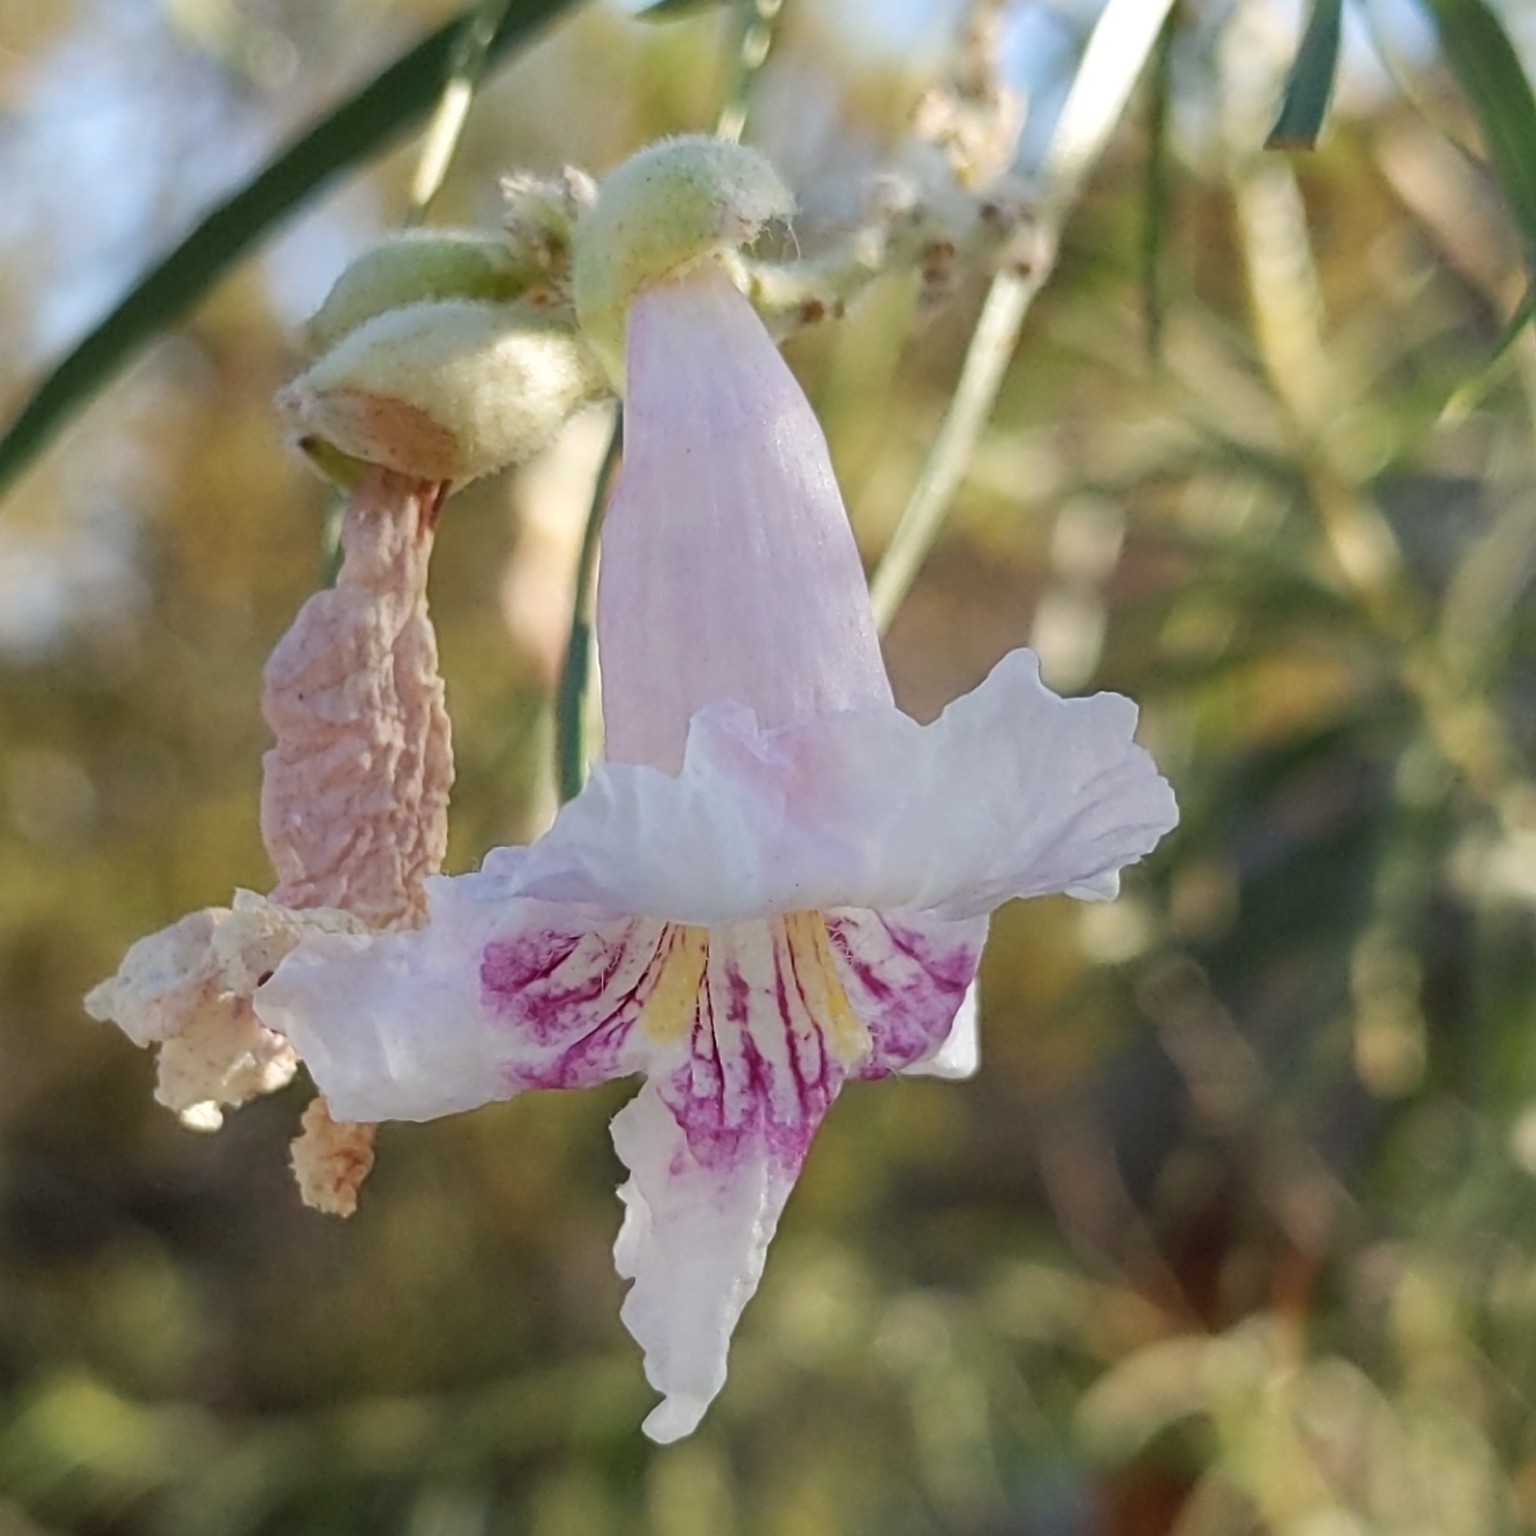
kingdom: Plantae
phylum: Tracheophyta
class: Magnoliopsida
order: Lamiales
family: Bignoniaceae
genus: Chilopsis
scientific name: Chilopsis linearis
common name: Desert-willow
